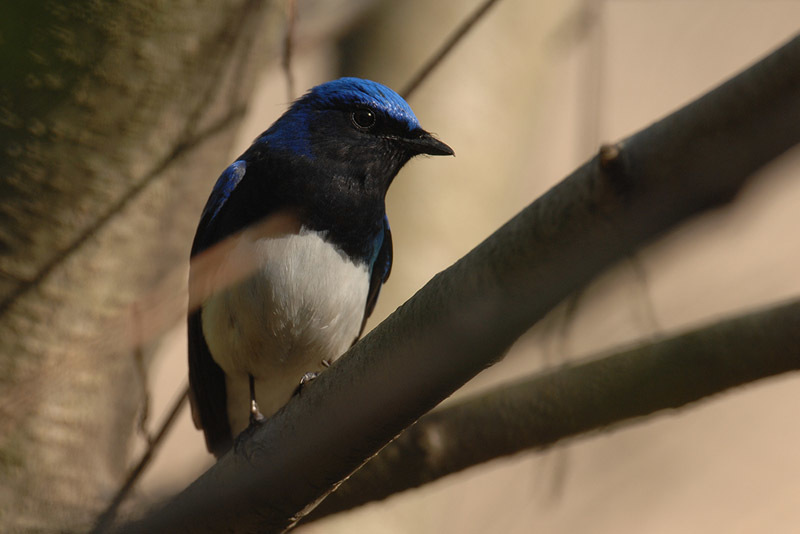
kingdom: Animalia
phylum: Chordata
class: Aves
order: Passeriformes
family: Muscicapidae
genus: Cyanoptila
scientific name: Cyanoptila cyanomelana
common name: Blue-and-white flycatcher
